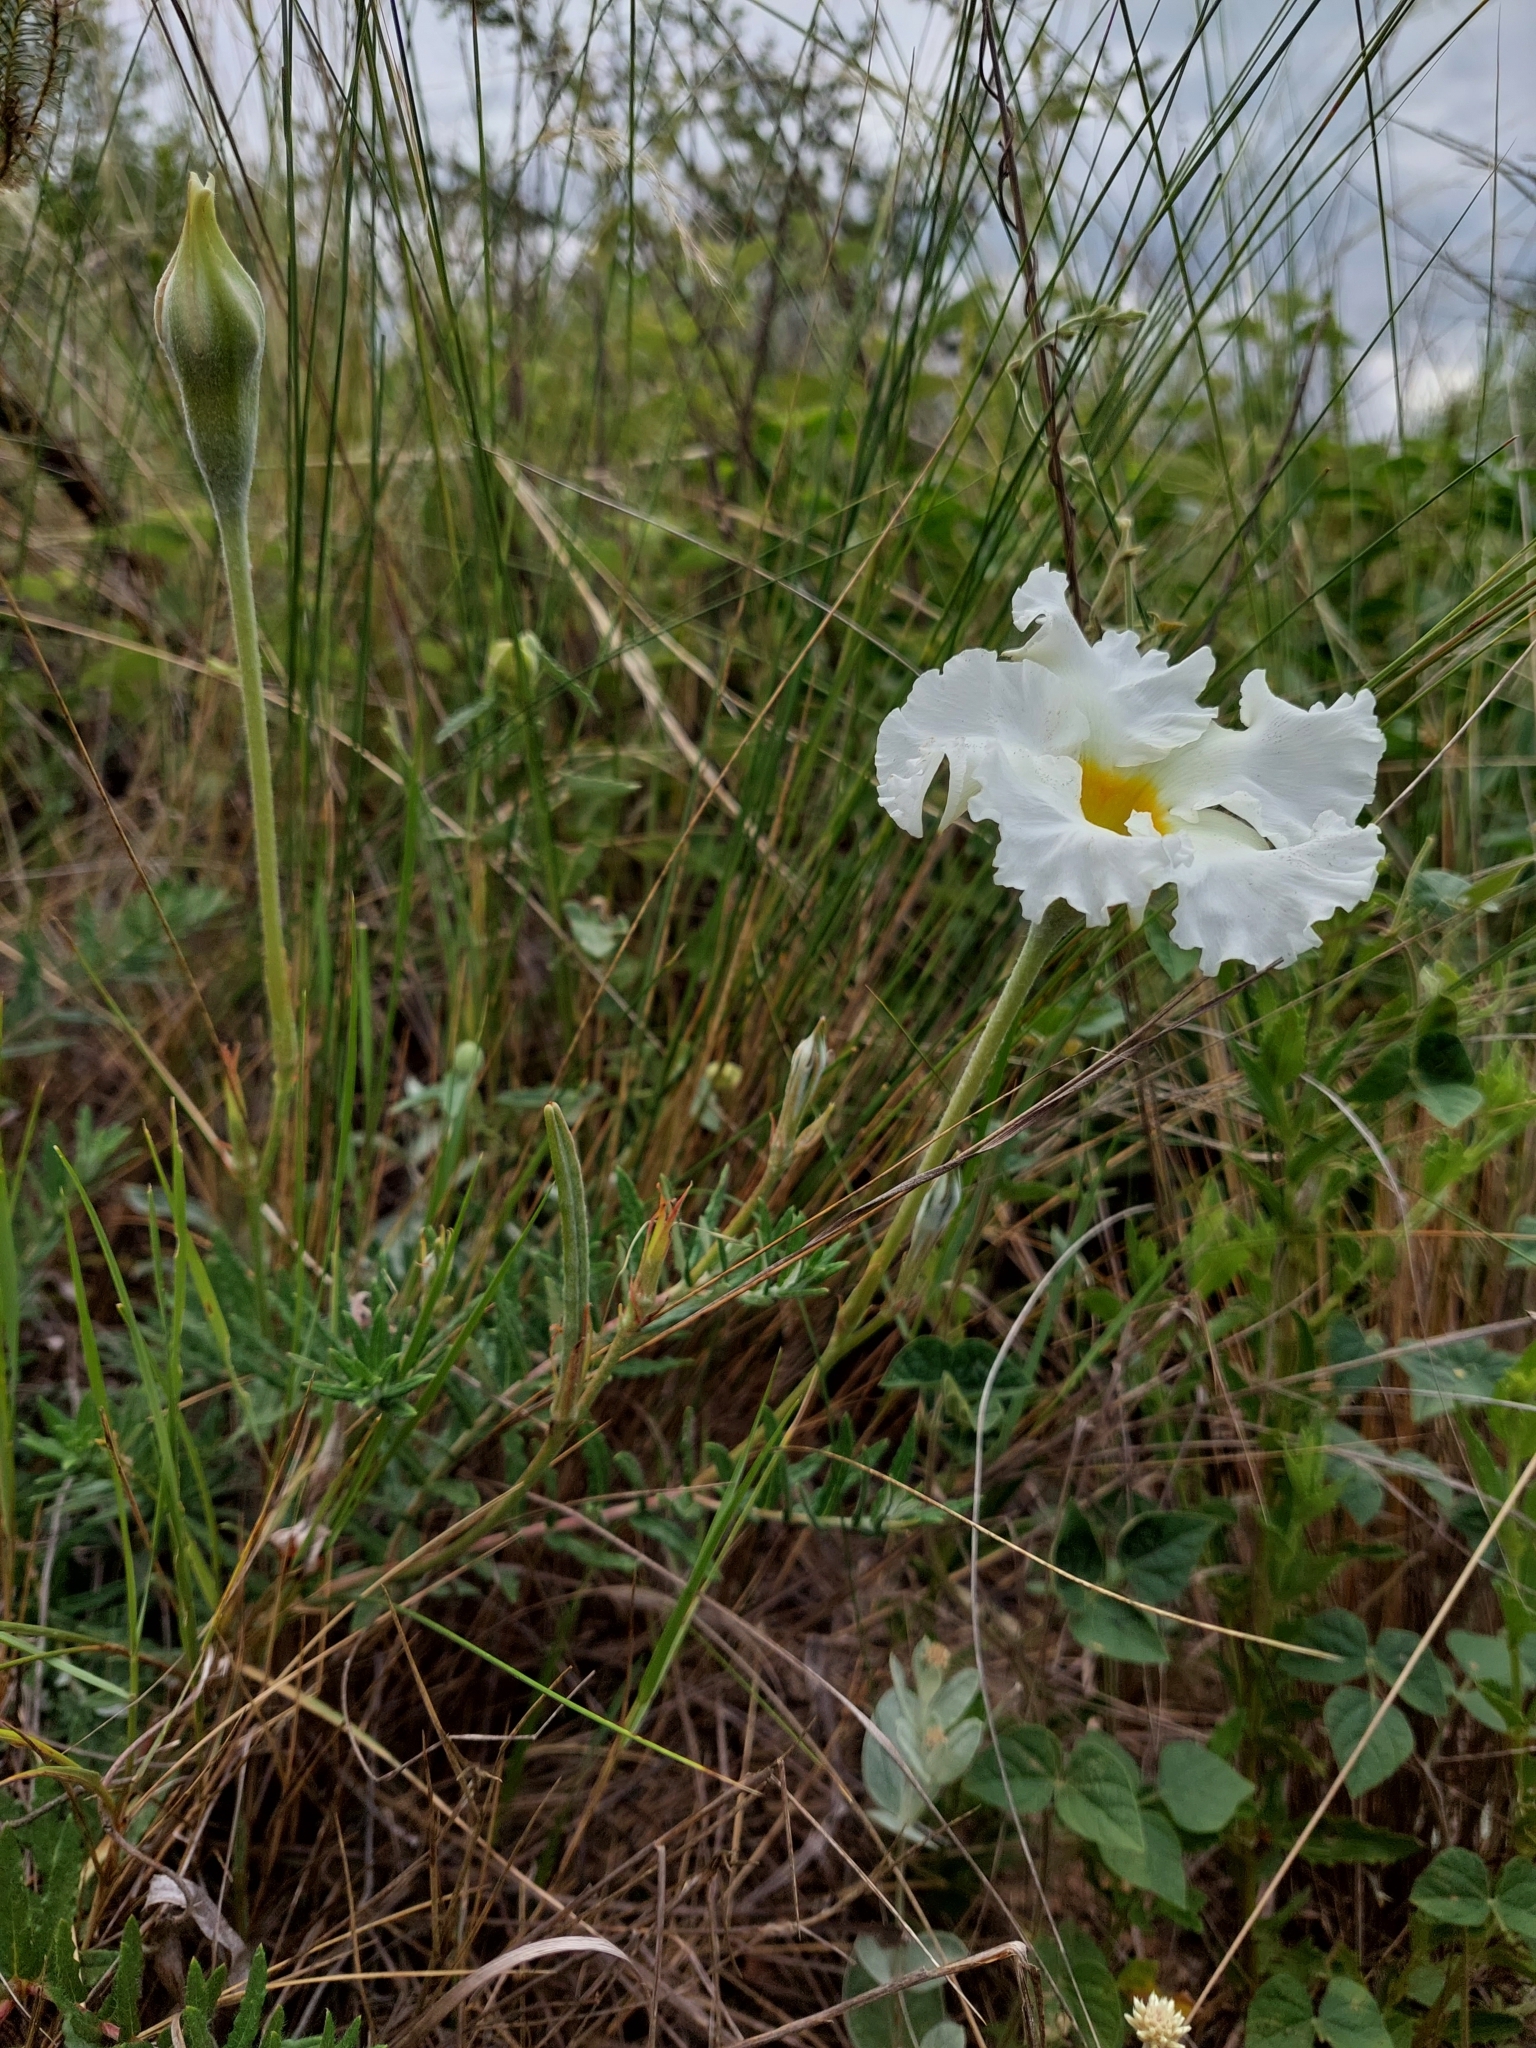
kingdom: Plantae
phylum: Tracheophyta
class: Magnoliopsida
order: Gentianales
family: Apocynaceae
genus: Mandevilla
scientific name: Mandevilla petraea
